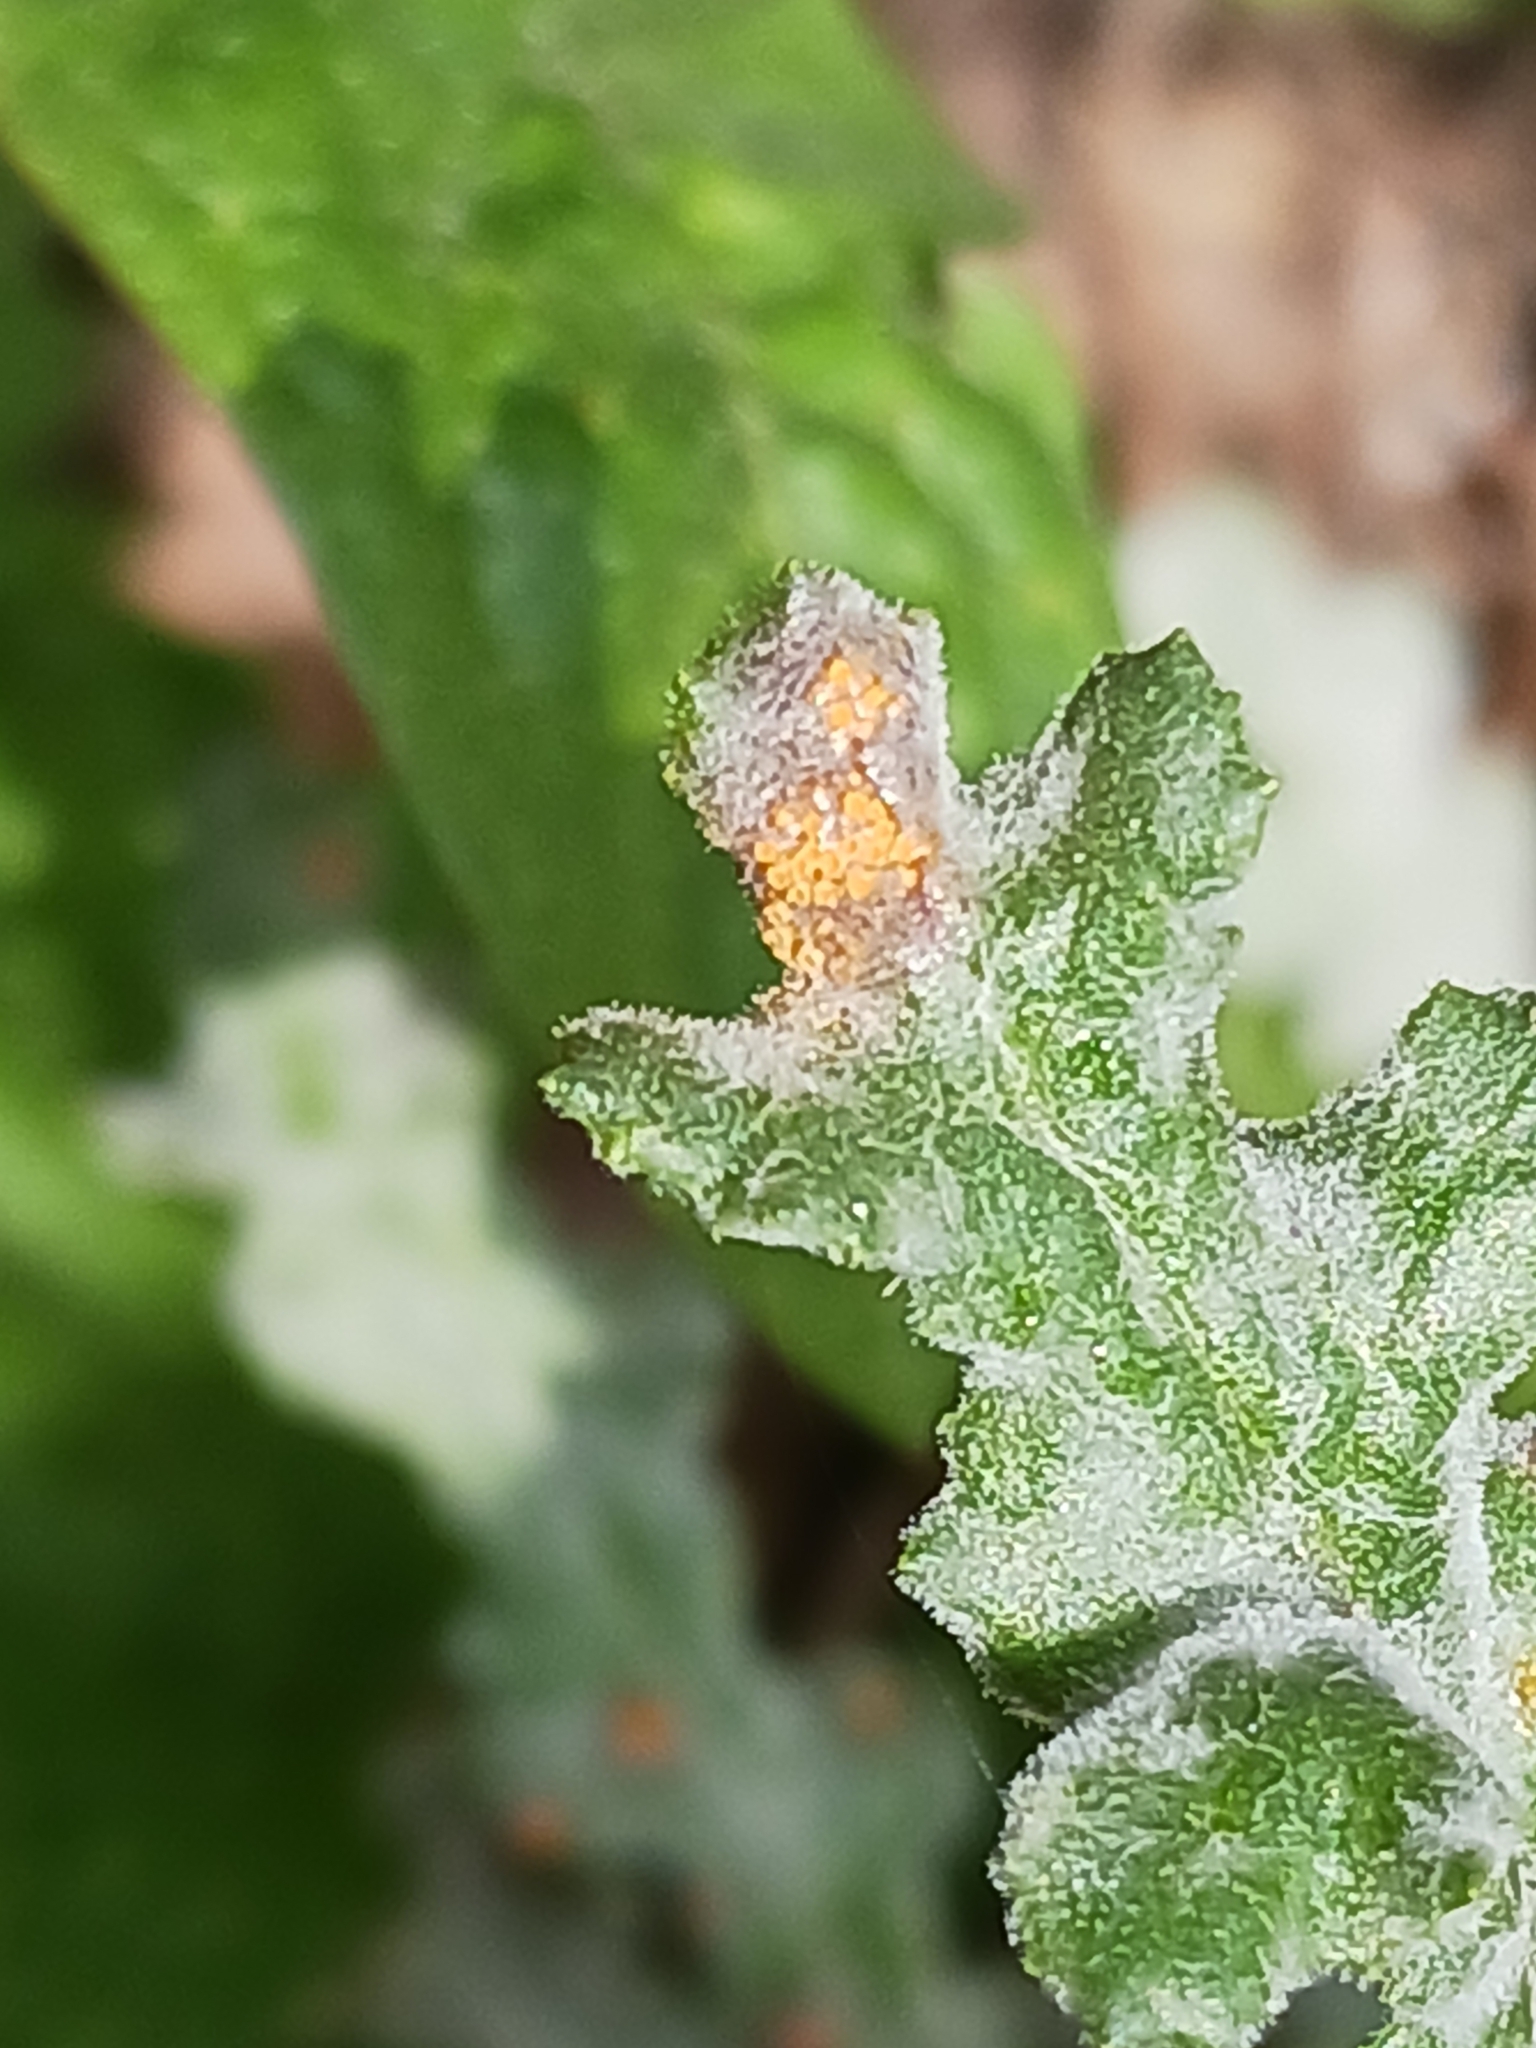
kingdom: Fungi
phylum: Basidiomycota
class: Pucciniomycetes
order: Pucciniales
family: Pucciniaceae
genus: Puccinia
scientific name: Puccinia lagenophorae
